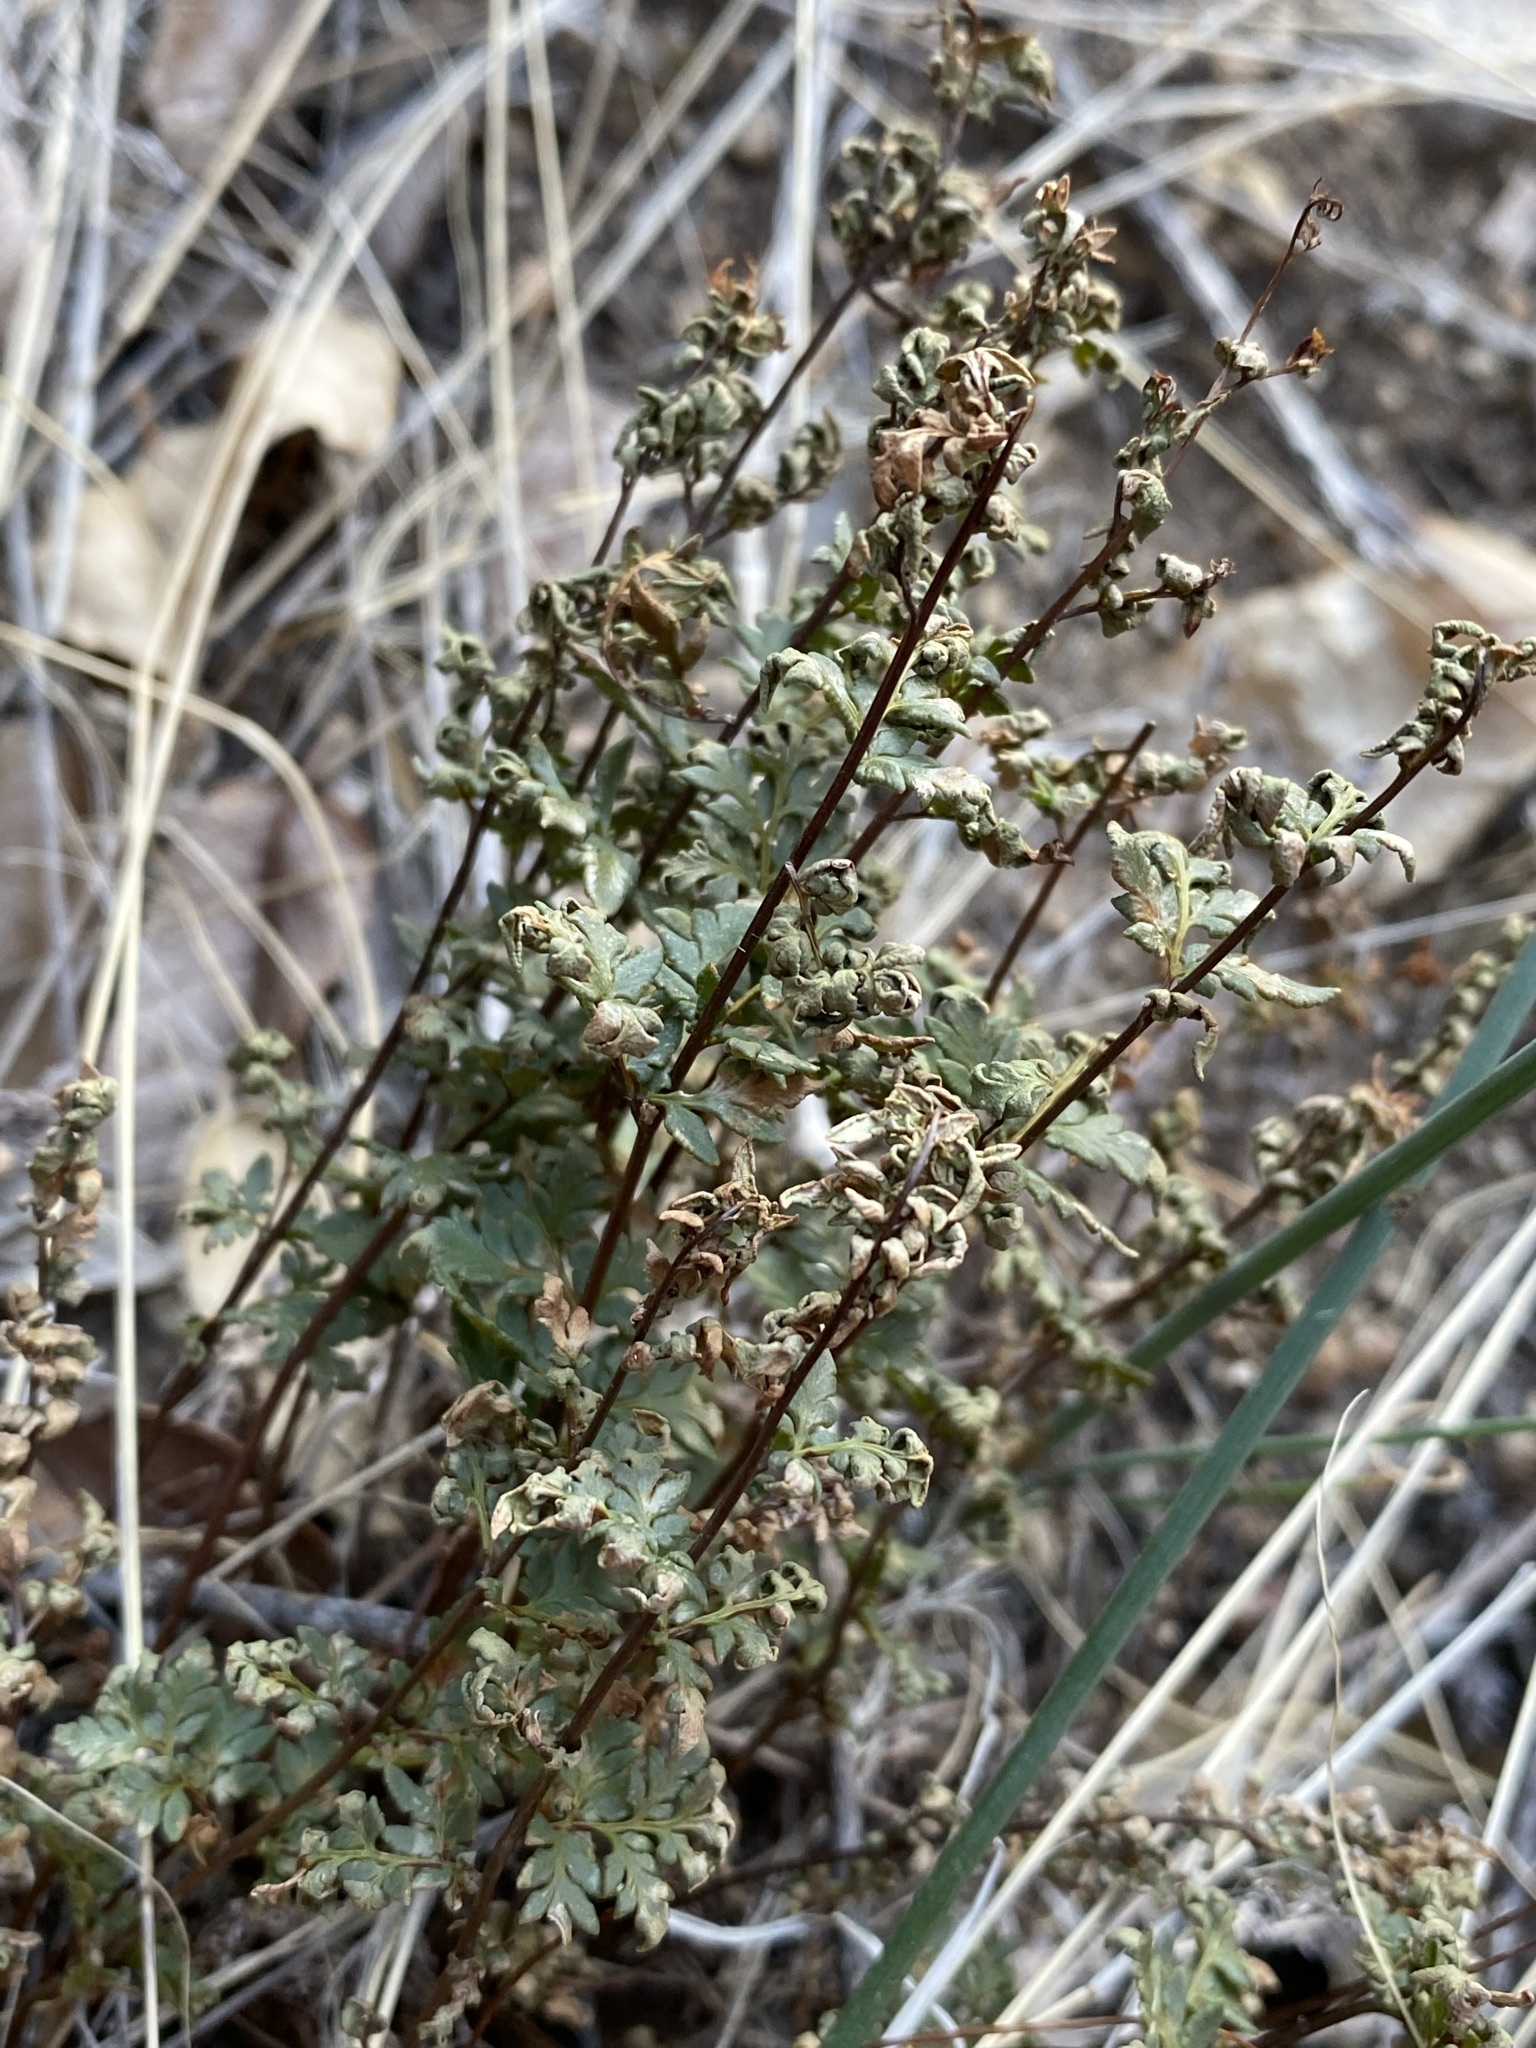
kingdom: Plantae
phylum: Tracheophyta
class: Polypodiopsida
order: Polypodiales
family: Pteridaceae
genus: Myriopteris
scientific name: Myriopteris wrightii
